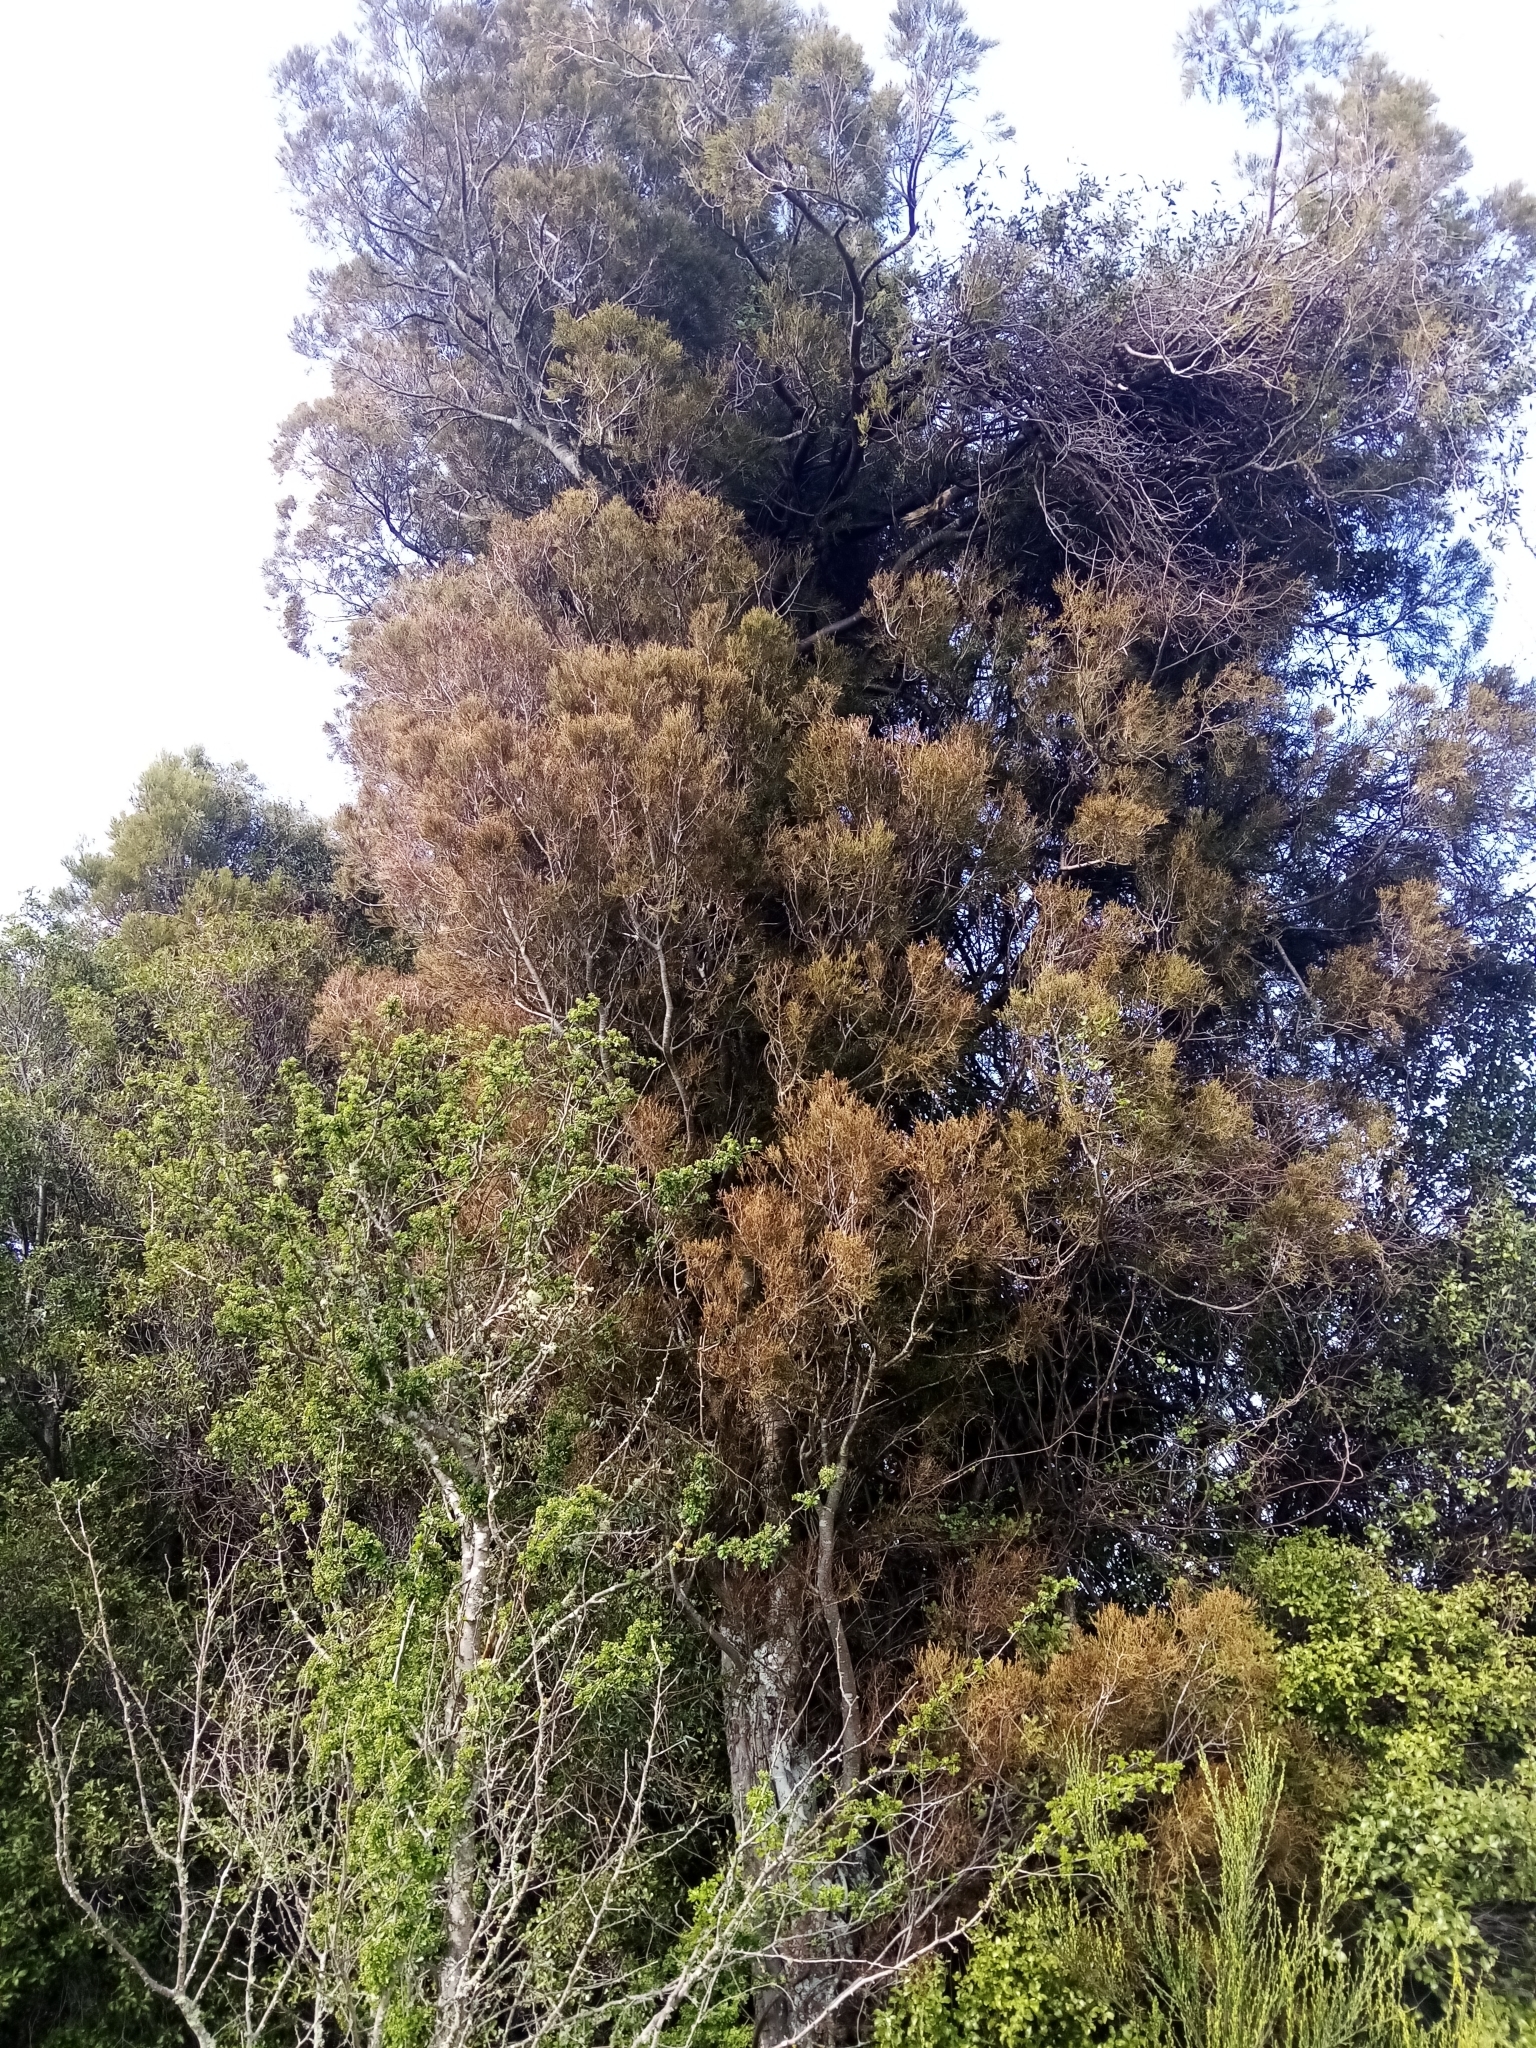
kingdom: Plantae
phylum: Tracheophyta
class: Pinopsida
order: Pinales
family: Podocarpaceae
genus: Dacrycarpus
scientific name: Dacrycarpus dacrydioides
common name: White pine
